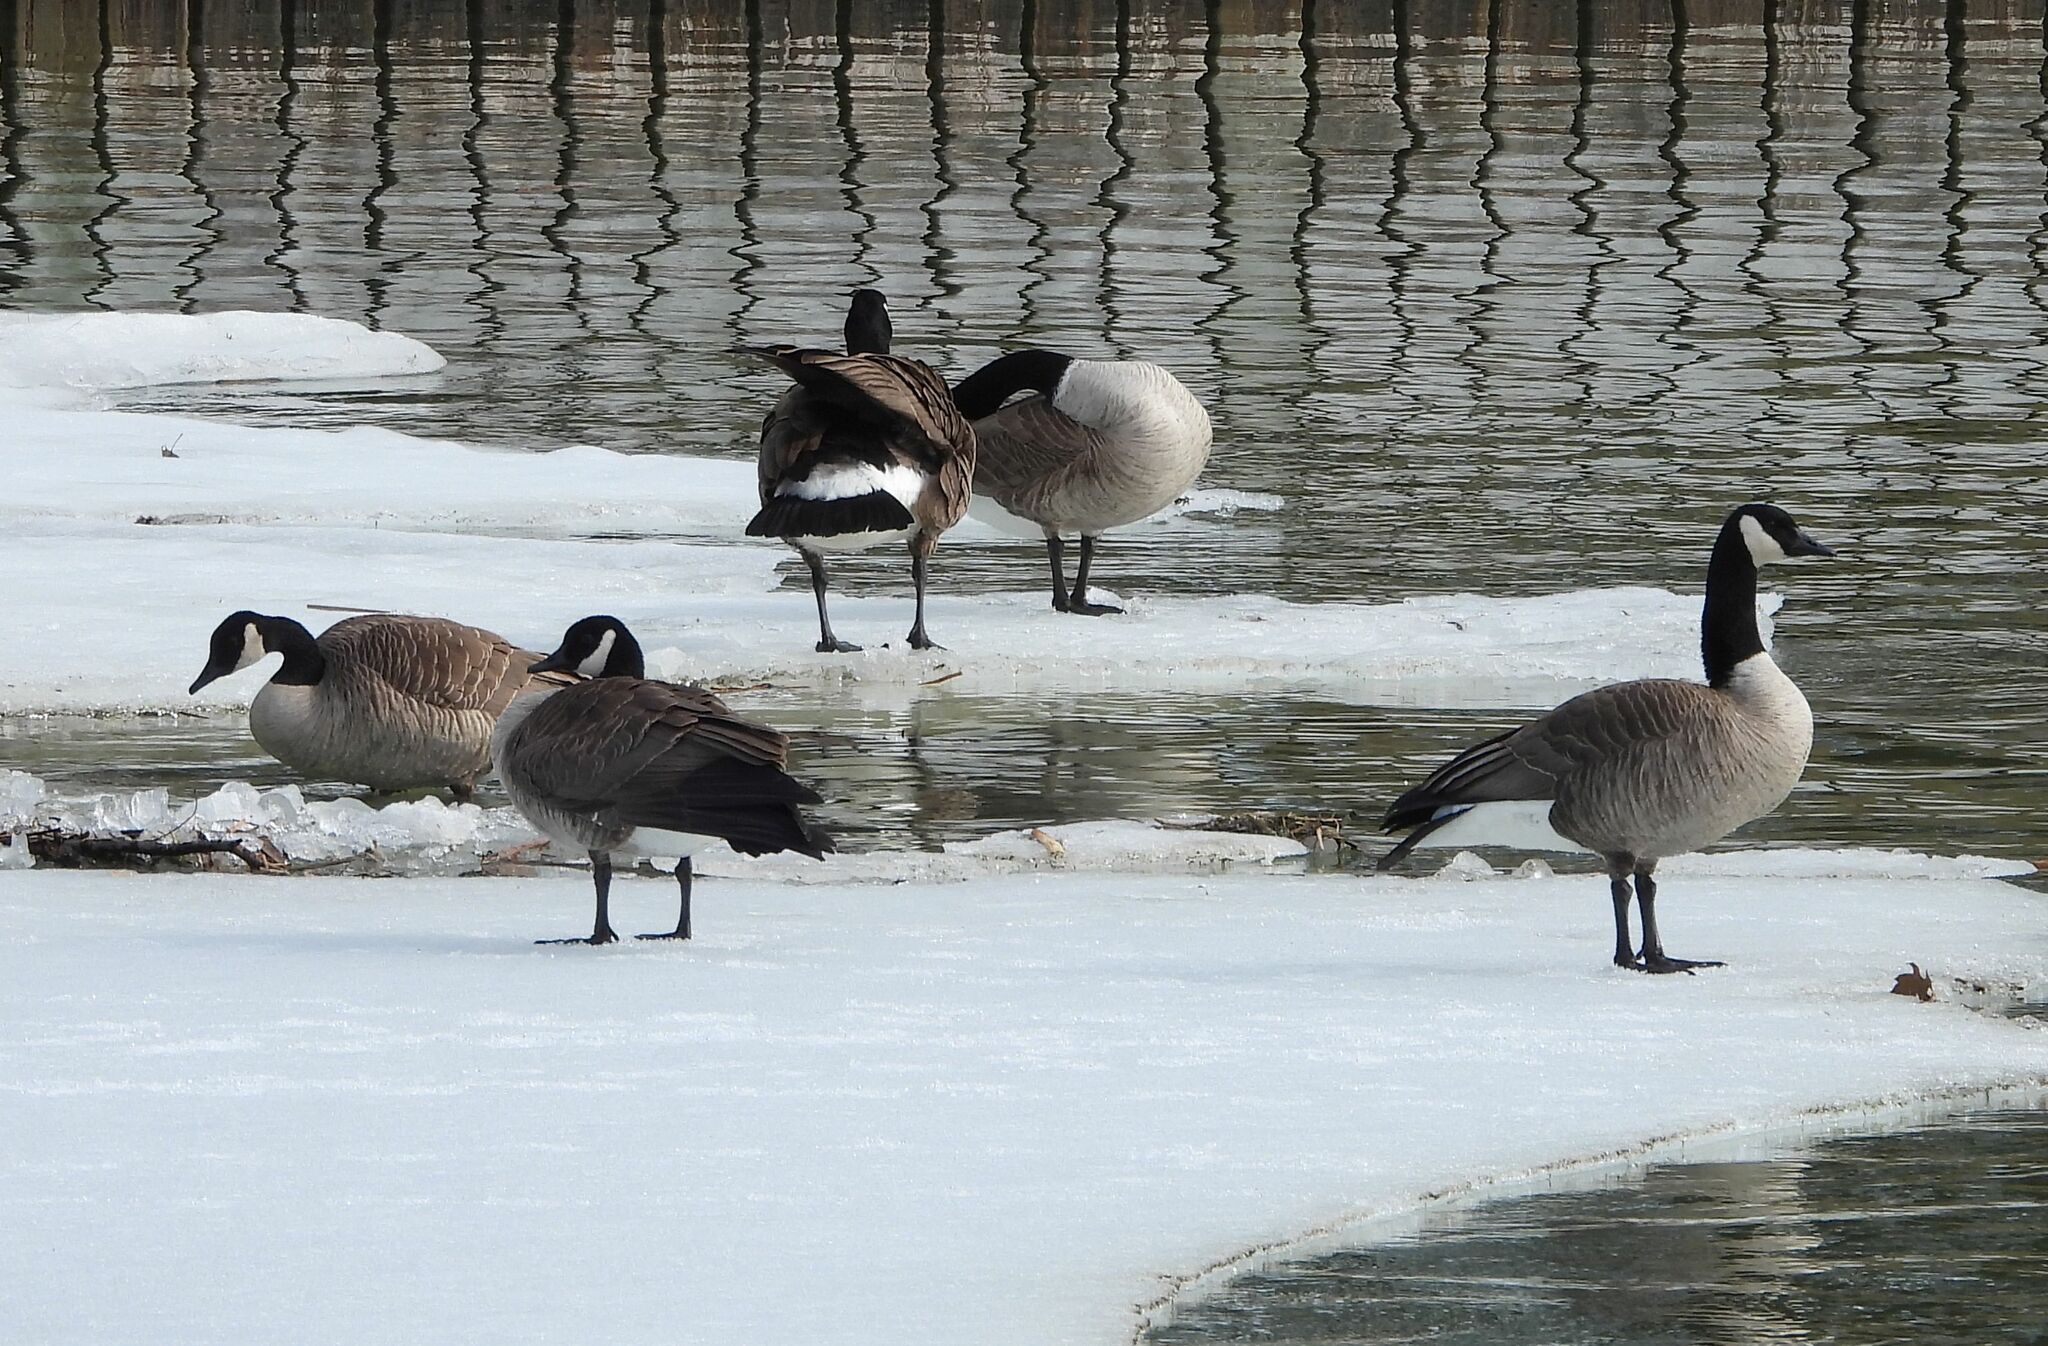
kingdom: Animalia
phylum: Chordata
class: Aves
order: Anseriformes
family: Anatidae
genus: Branta
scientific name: Branta canadensis
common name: Canada goose
